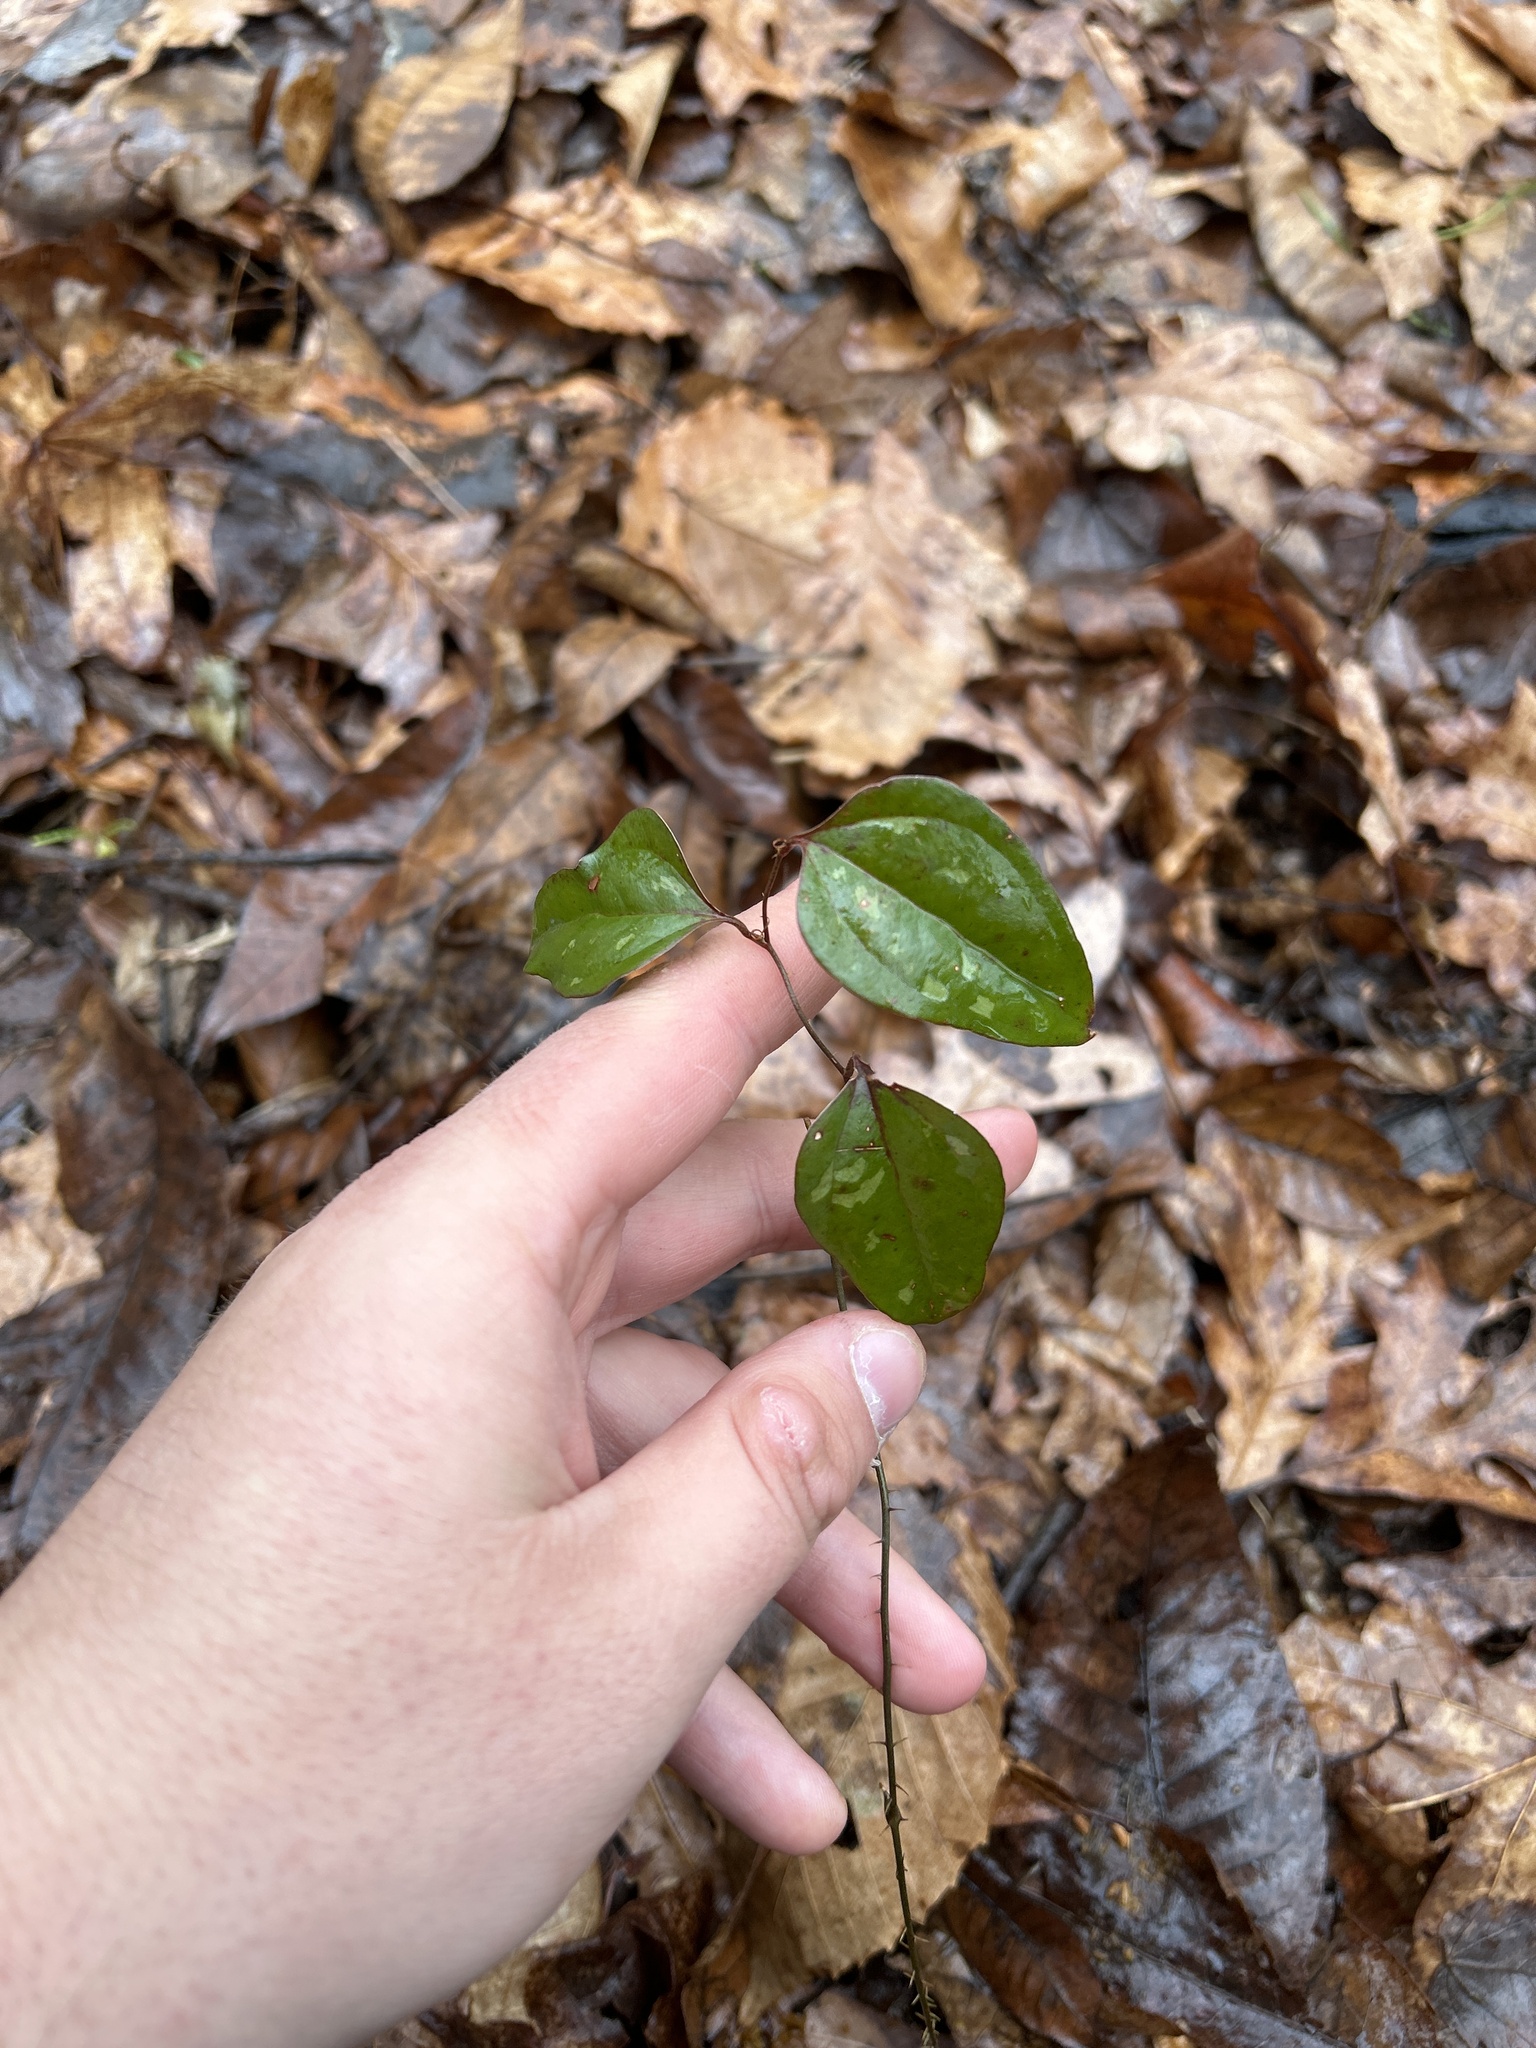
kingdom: Plantae
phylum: Tracheophyta
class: Liliopsida
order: Liliales
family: Smilacaceae
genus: Smilax
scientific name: Smilax glauca
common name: Cat greenbrier
